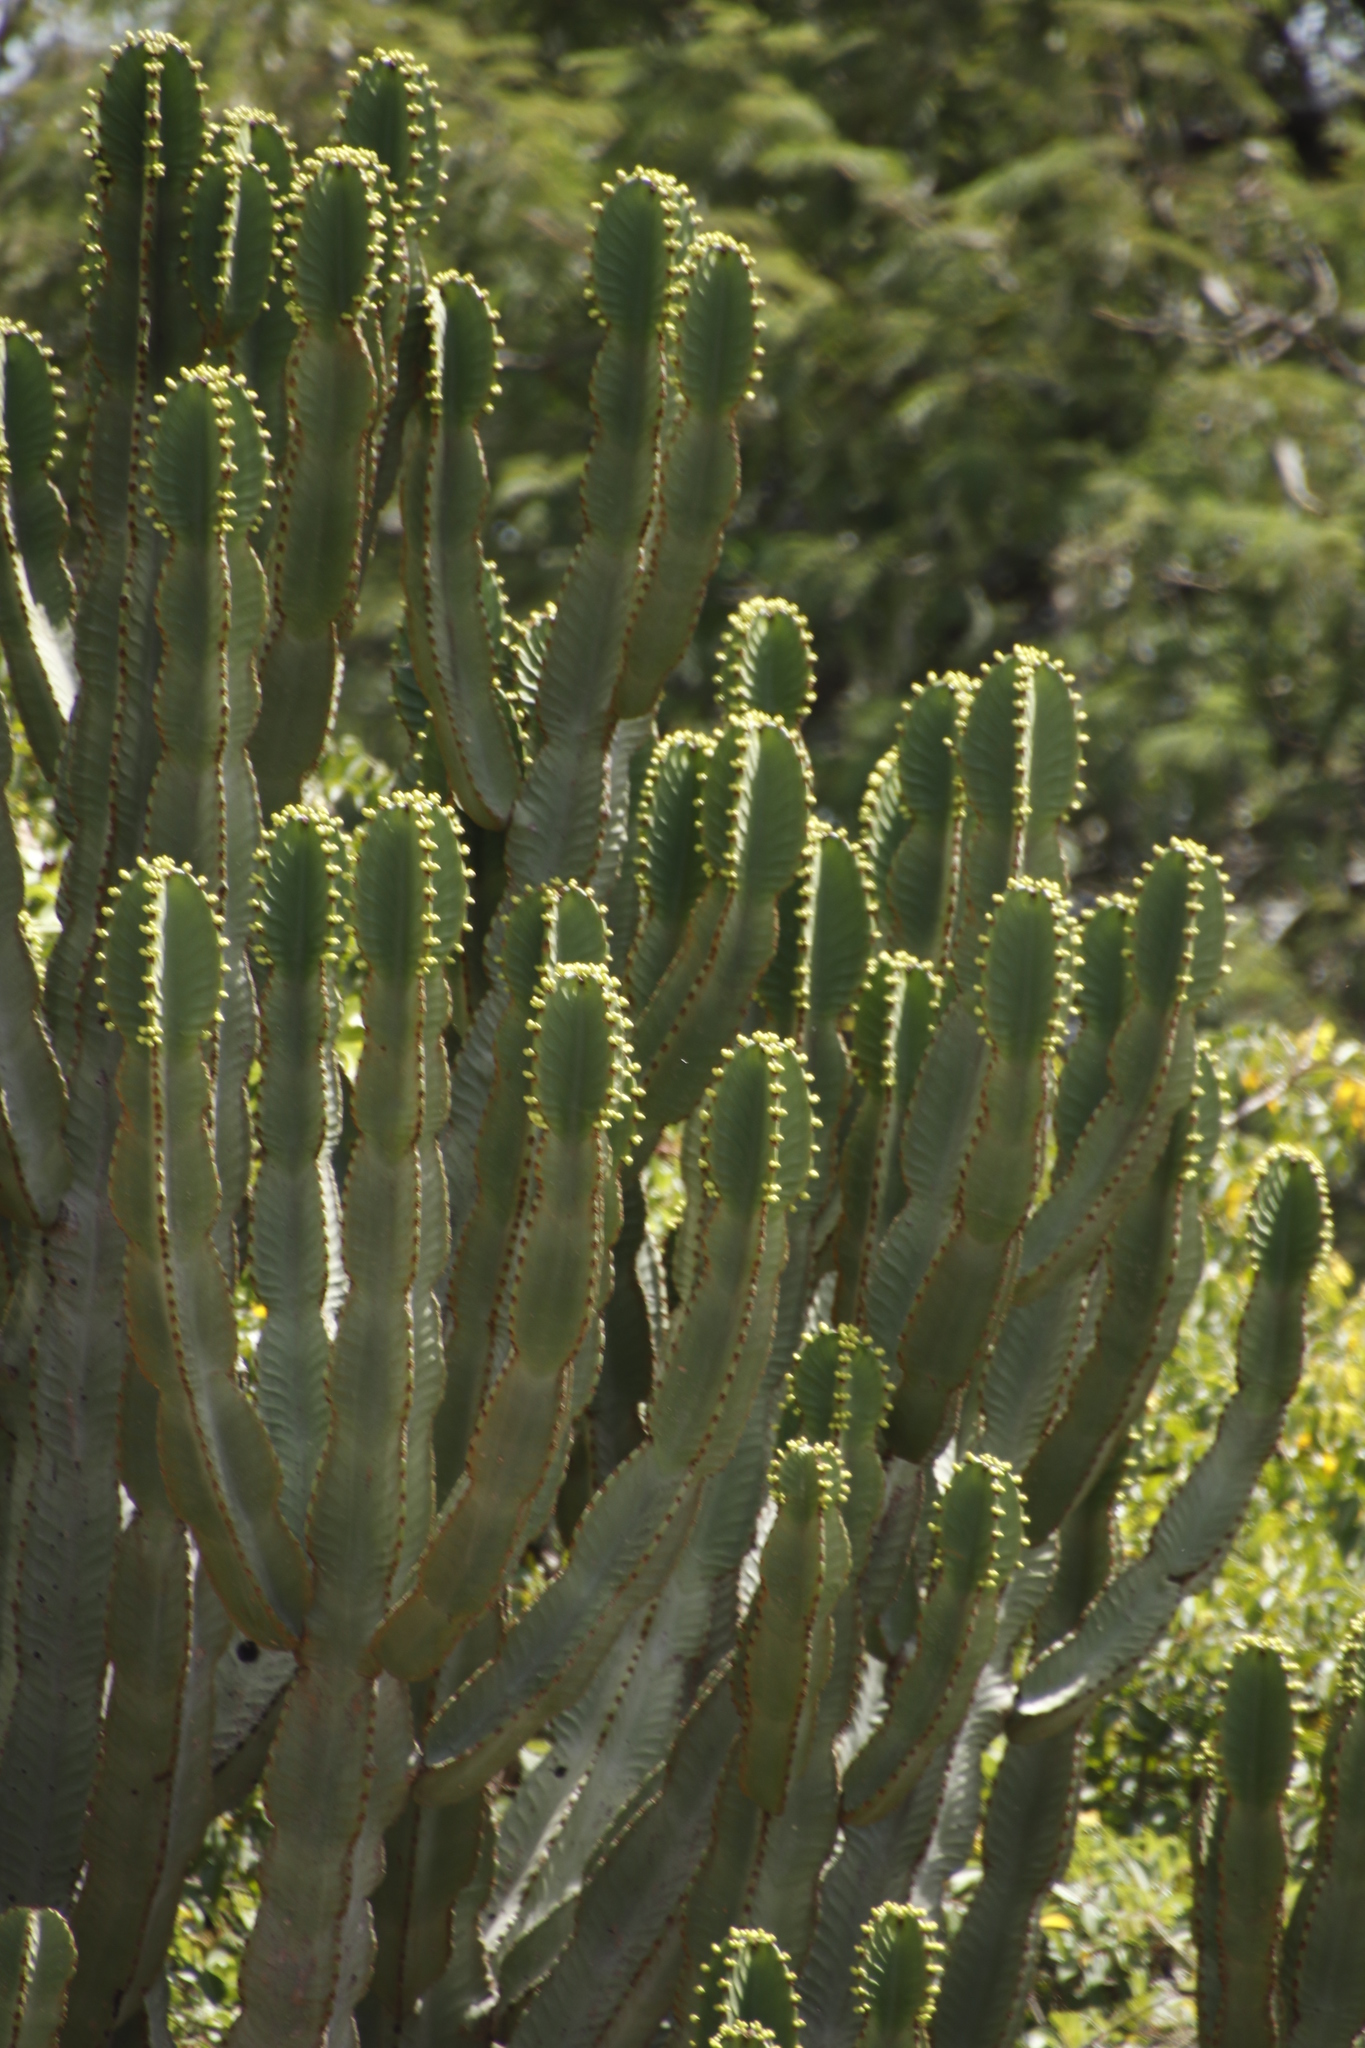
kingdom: Plantae
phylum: Tracheophyta
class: Magnoliopsida
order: Malpighiales
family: Euphorbiaceae
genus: Euphorbia
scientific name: Euphorbia ingens
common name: Cactus spurge
